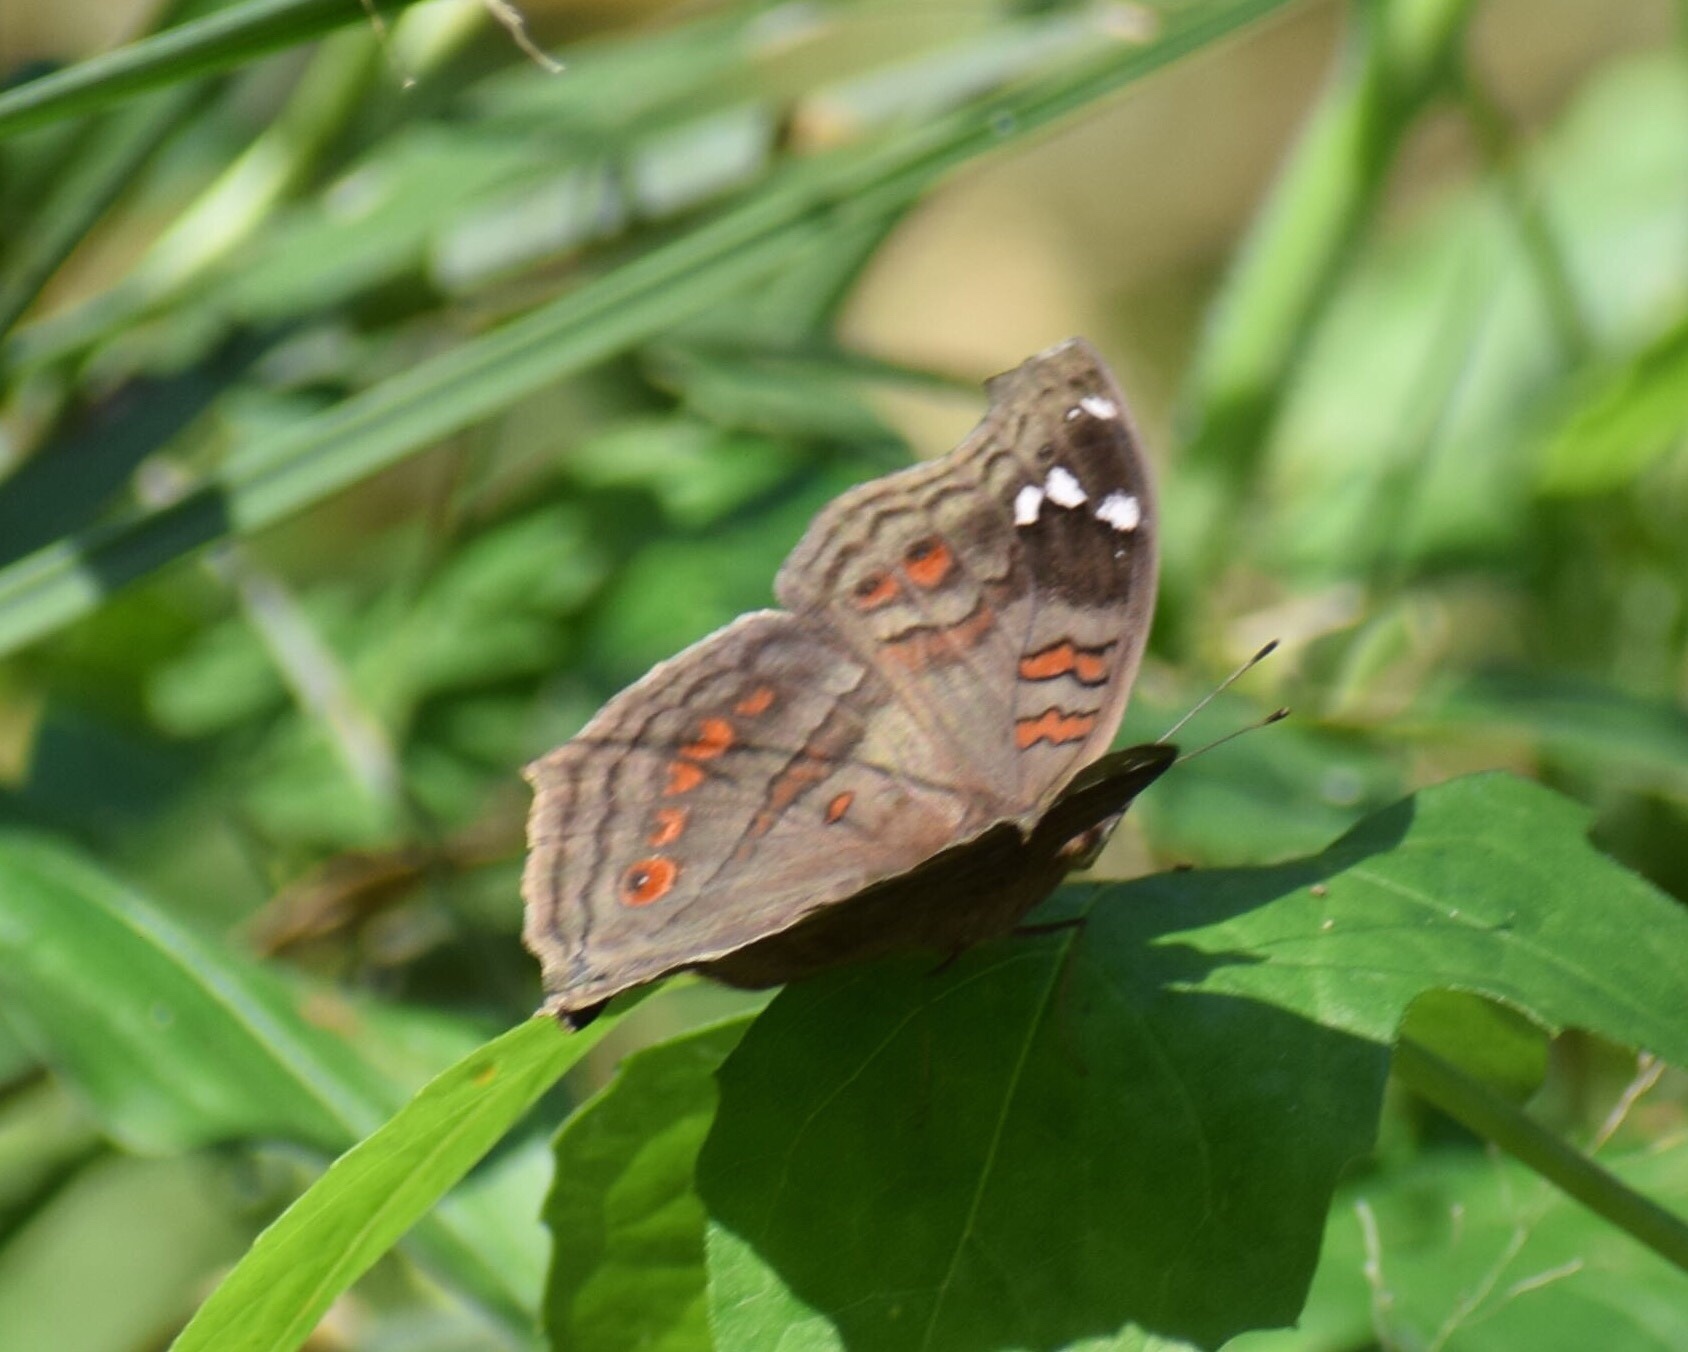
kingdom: Animalia
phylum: Arthropoda
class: Insecta
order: Lepidoptera
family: Nymphalidae
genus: Junonia
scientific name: Junonia natalica
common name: Brown pansy
